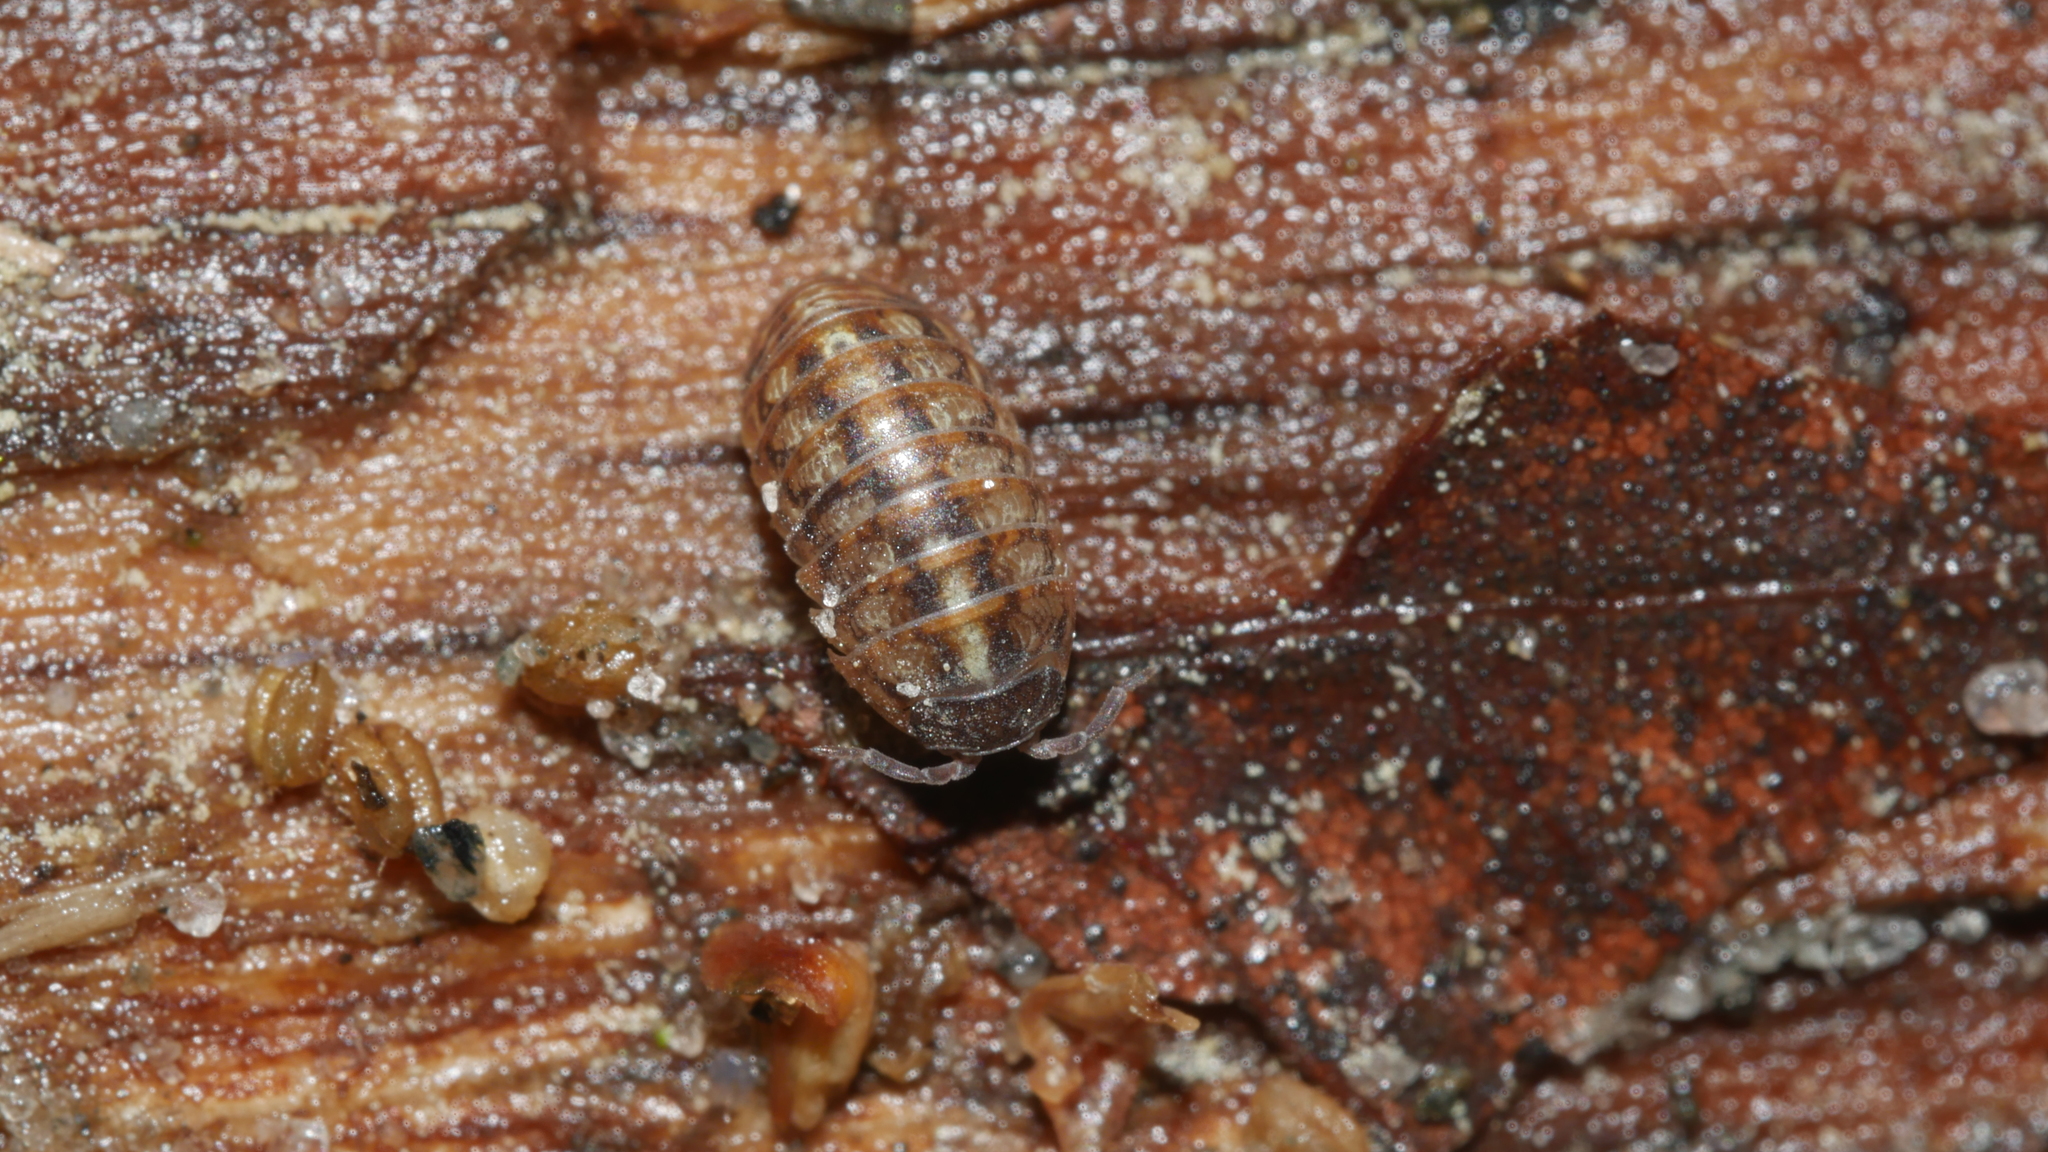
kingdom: Animalia
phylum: Arthropoda
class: Malacostraca
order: Isopoda
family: Armadillidiidae
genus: Armadillidium
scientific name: Armadillidium vulgare
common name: Common pill woodlouse
